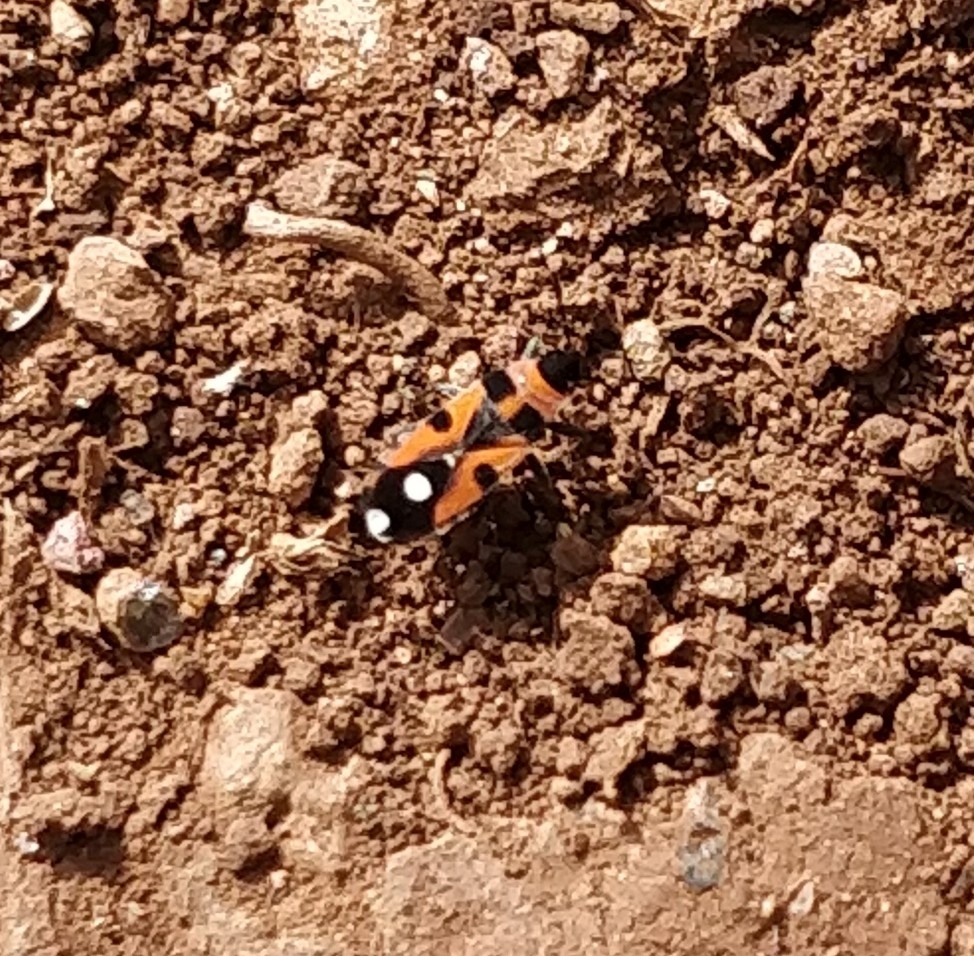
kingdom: Animalia
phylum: Arthropoda
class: Insecta
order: Hemiptera
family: Lygaeidae
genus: Horvathiolus
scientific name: Horvathiolus superbus
